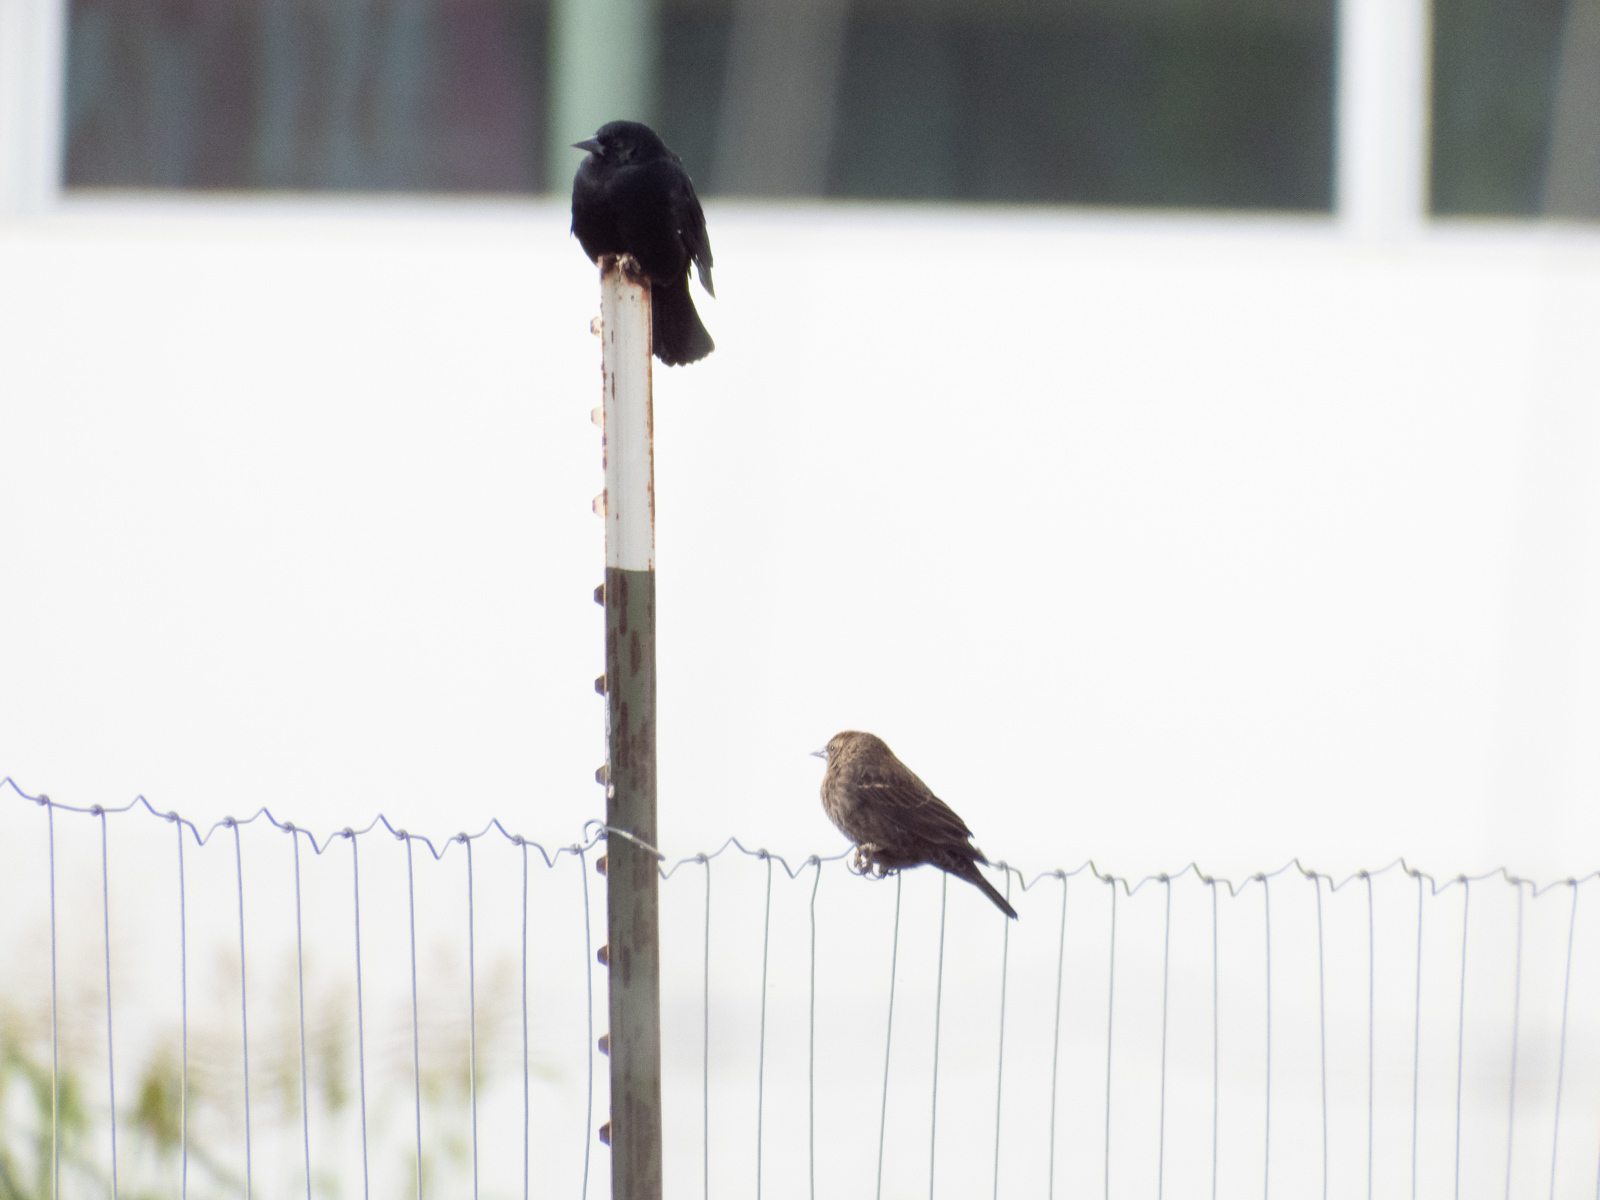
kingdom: Animalia
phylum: Chordata
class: Aves
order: Passeriformes
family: Icteridae
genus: Agelaius
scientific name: Agelaius phoeniceus
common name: Red-winged blackbird
